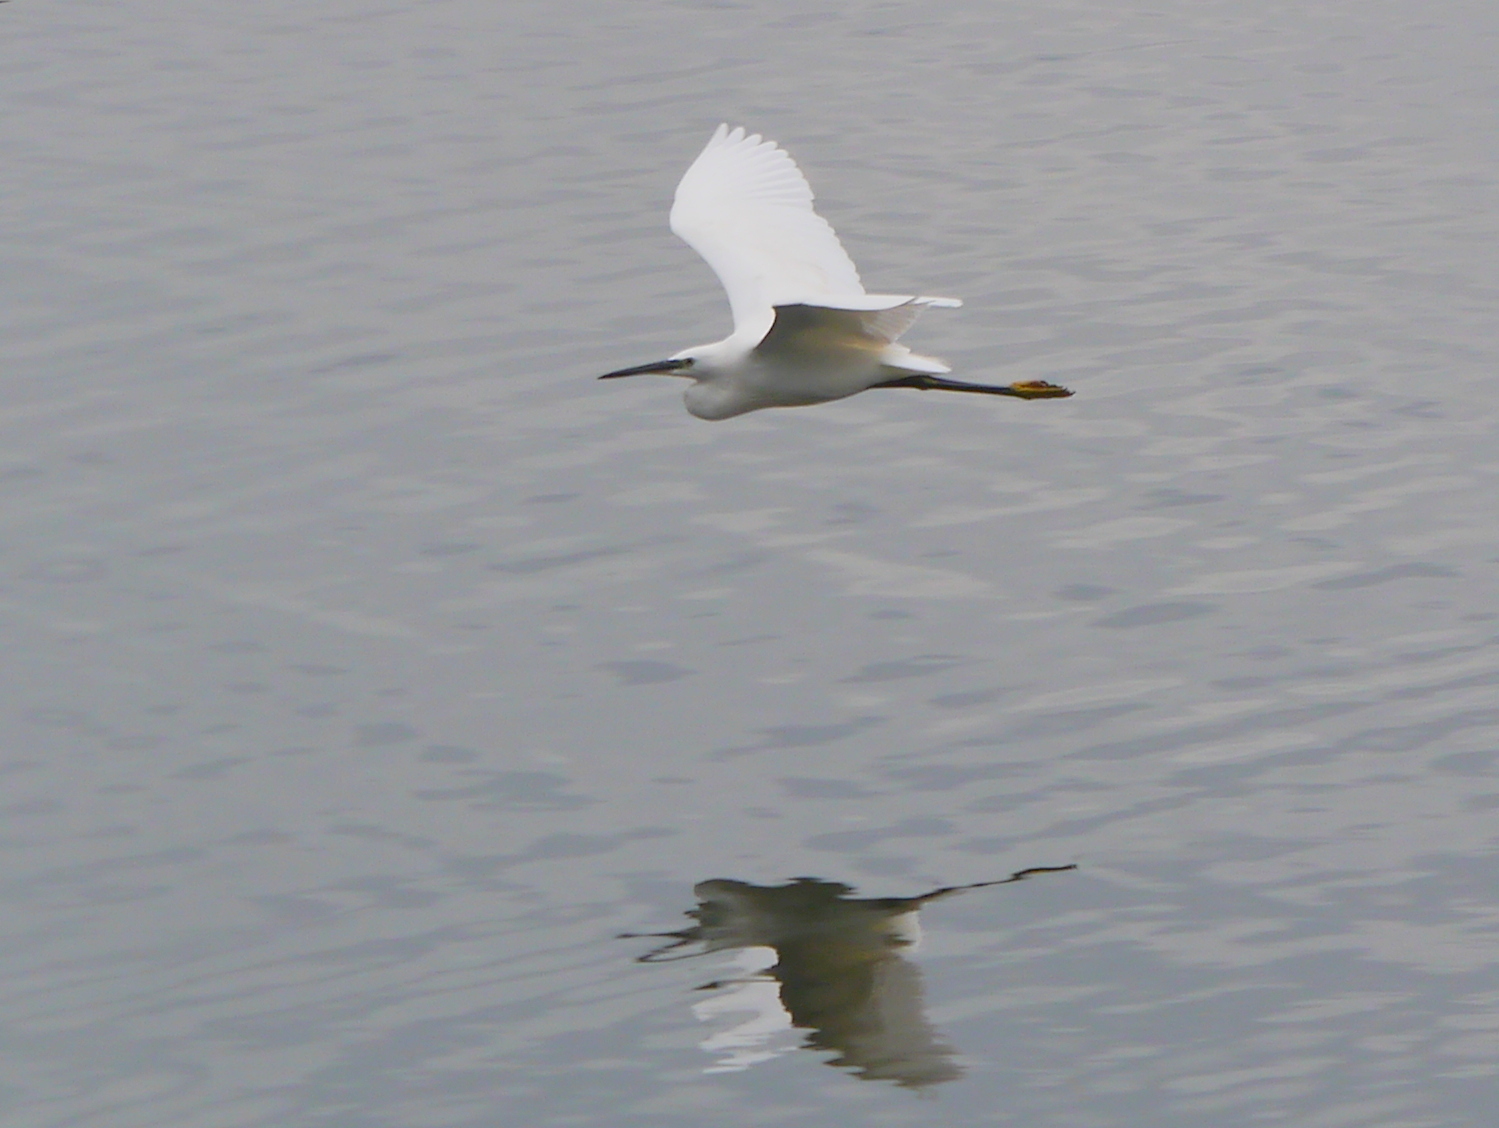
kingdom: Animalia
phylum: Chordata
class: Aves
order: Pelecaniformes
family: Ardeidae
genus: Egretta
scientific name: Egretta garzetta
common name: Little egret
